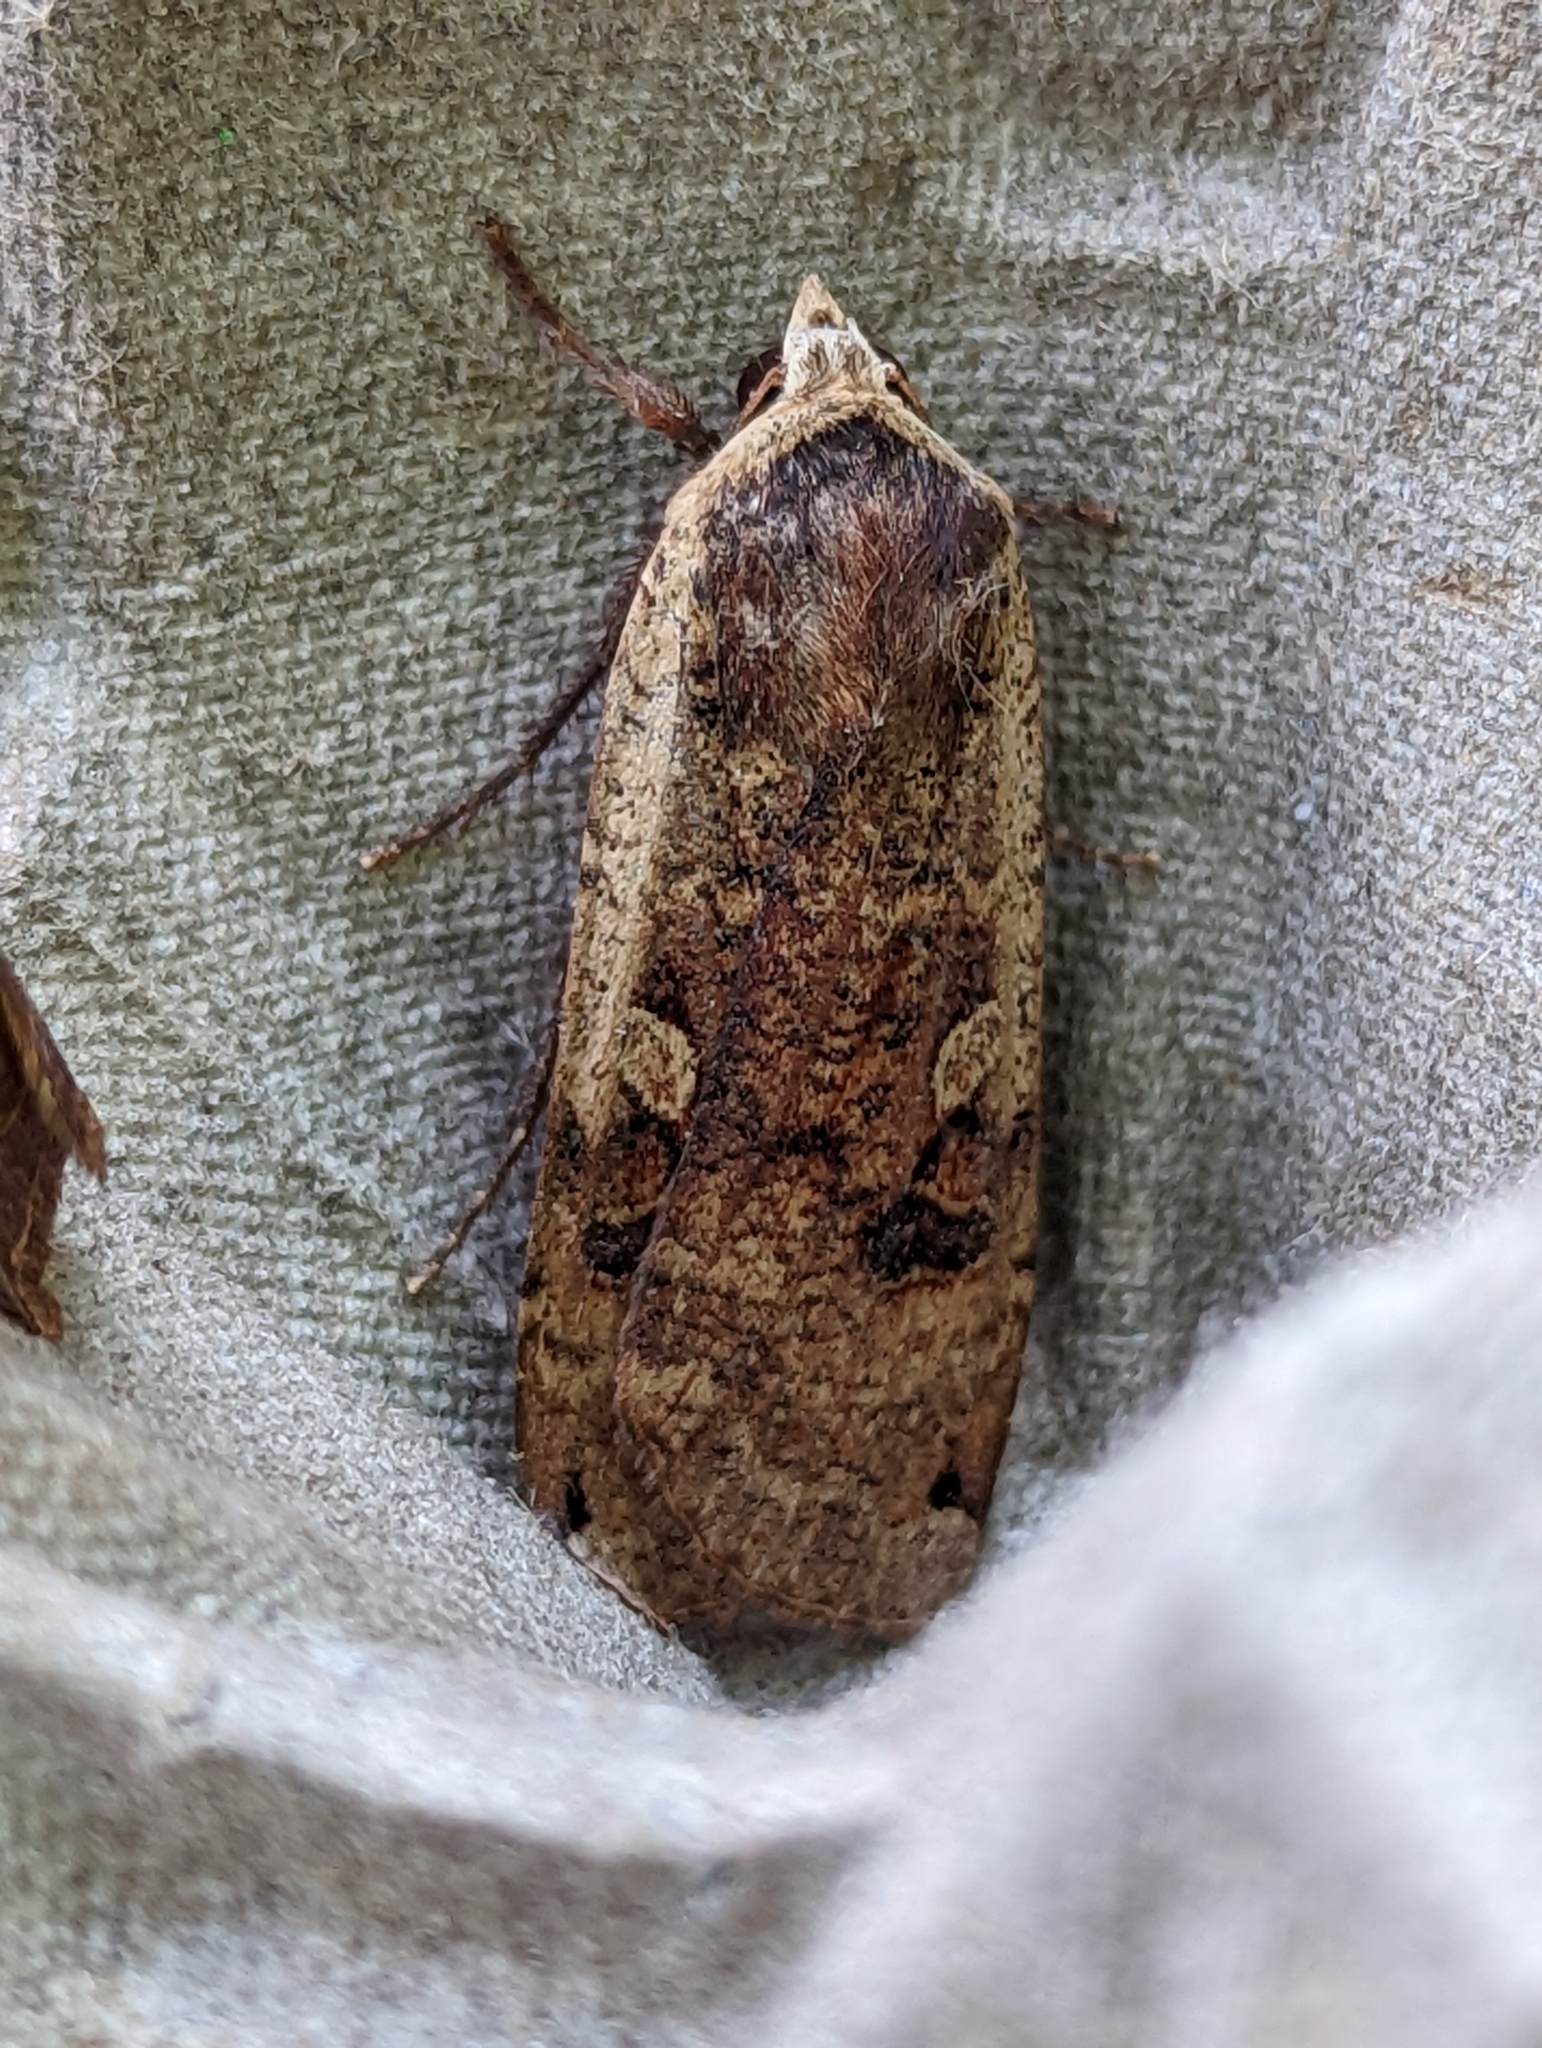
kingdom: Animalia
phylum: Arthropoda
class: Insecta
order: Lepidoptera
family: Noctuidae
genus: Noctua
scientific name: Noctua pronuba
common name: Large yellow underwing
